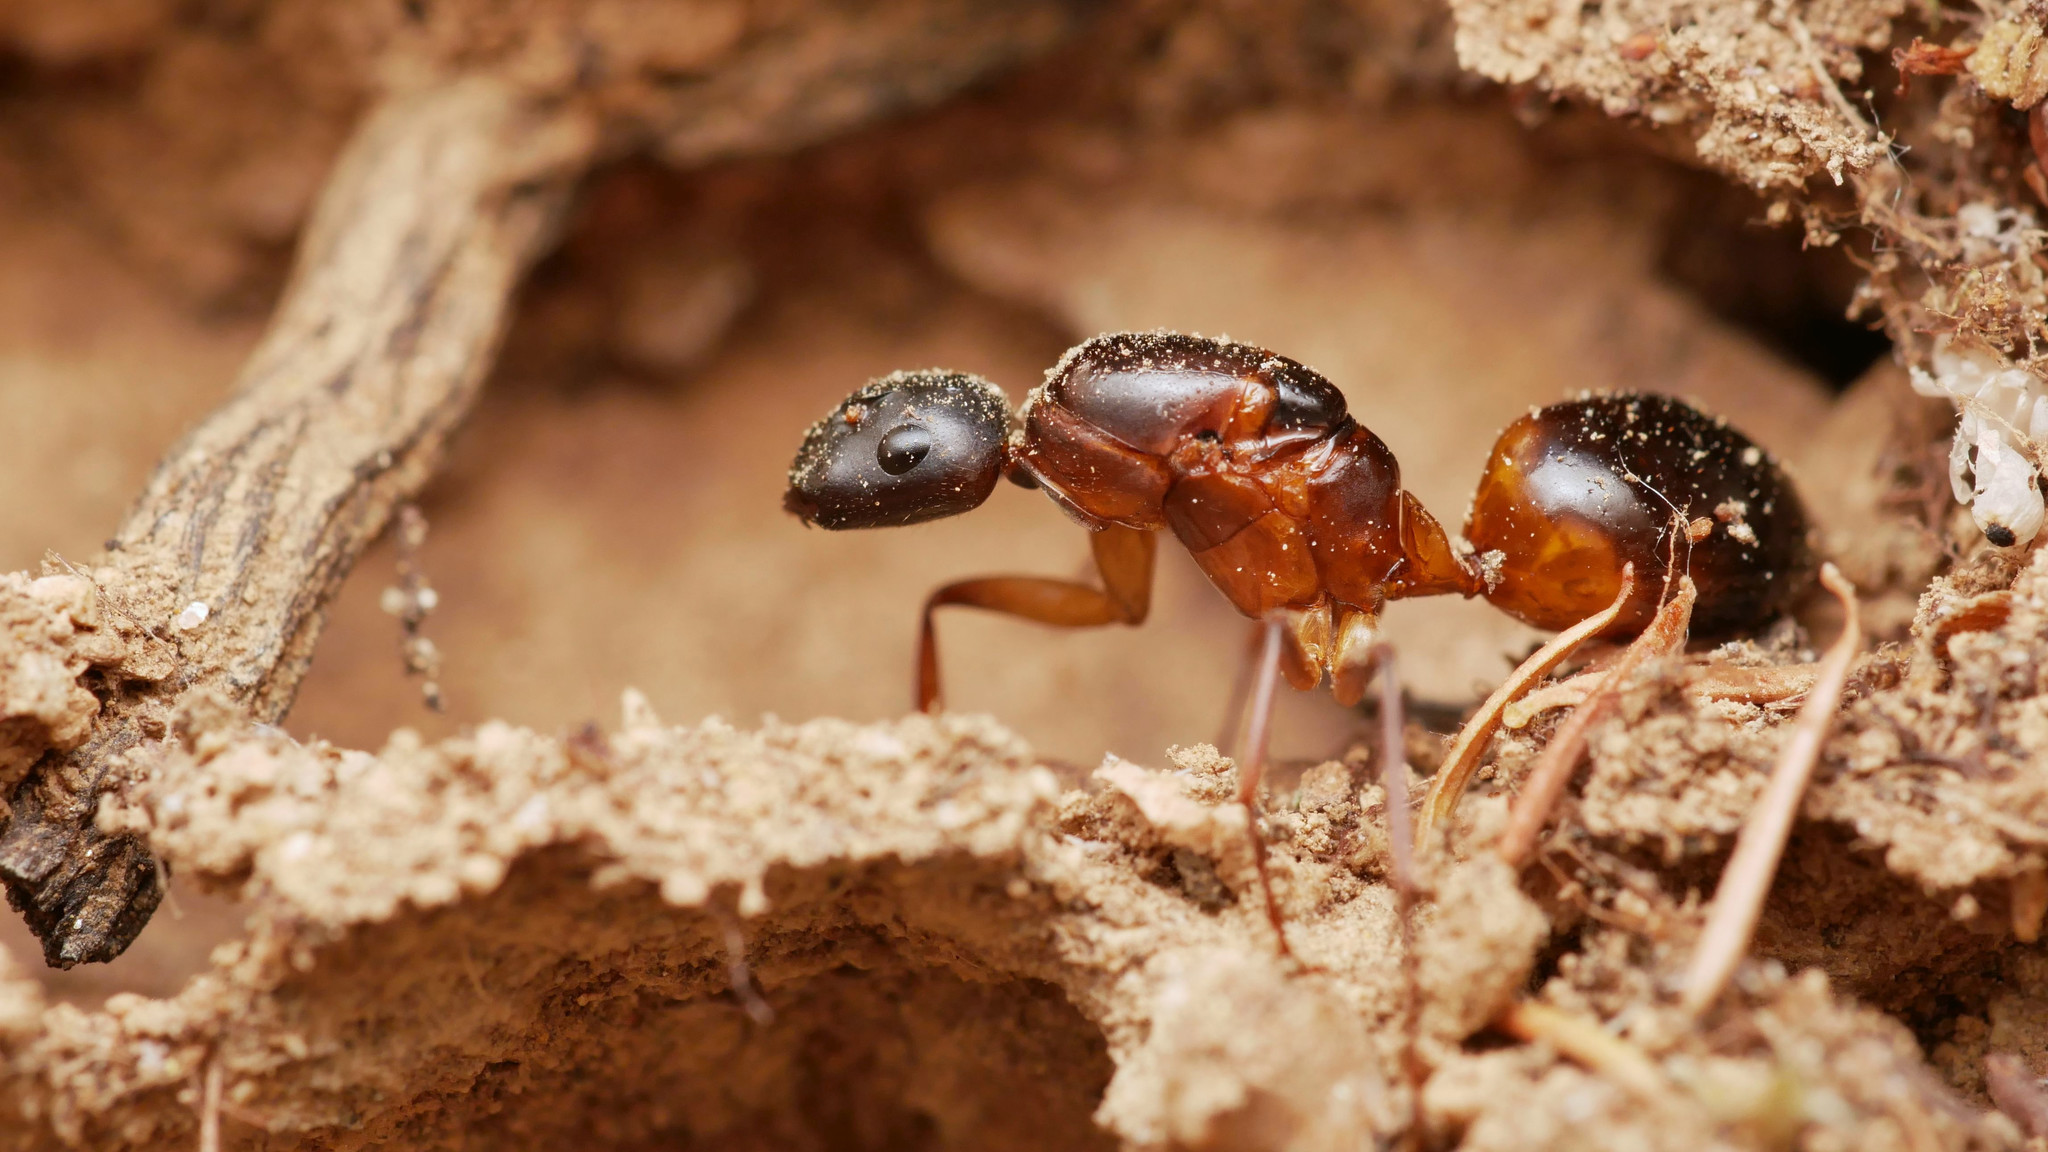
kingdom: Animalia
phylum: Arthropoda
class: Insecta
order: Hymenoptera
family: Formicidae
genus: Camponotus
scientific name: Camponotus pilicornis
